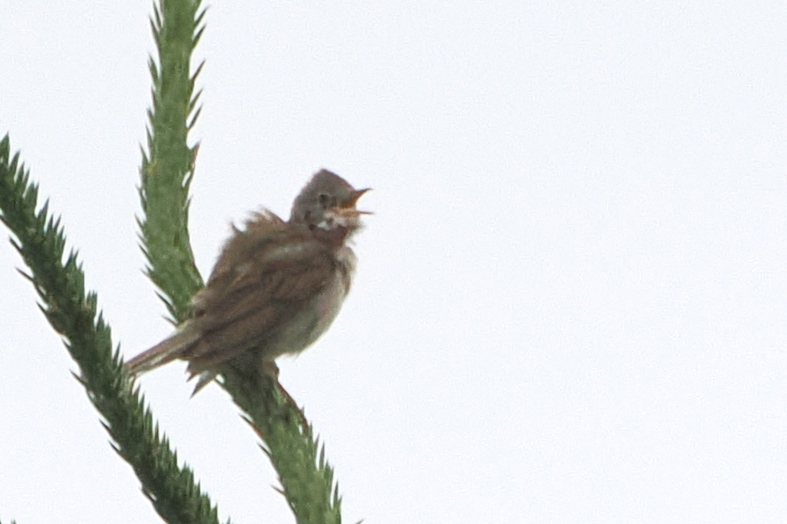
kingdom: Animalia
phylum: Chordata
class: Aves
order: Passeriformes
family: Sylviidae
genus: Sylvia
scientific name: Sylvia communis
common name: Common whitethroat
